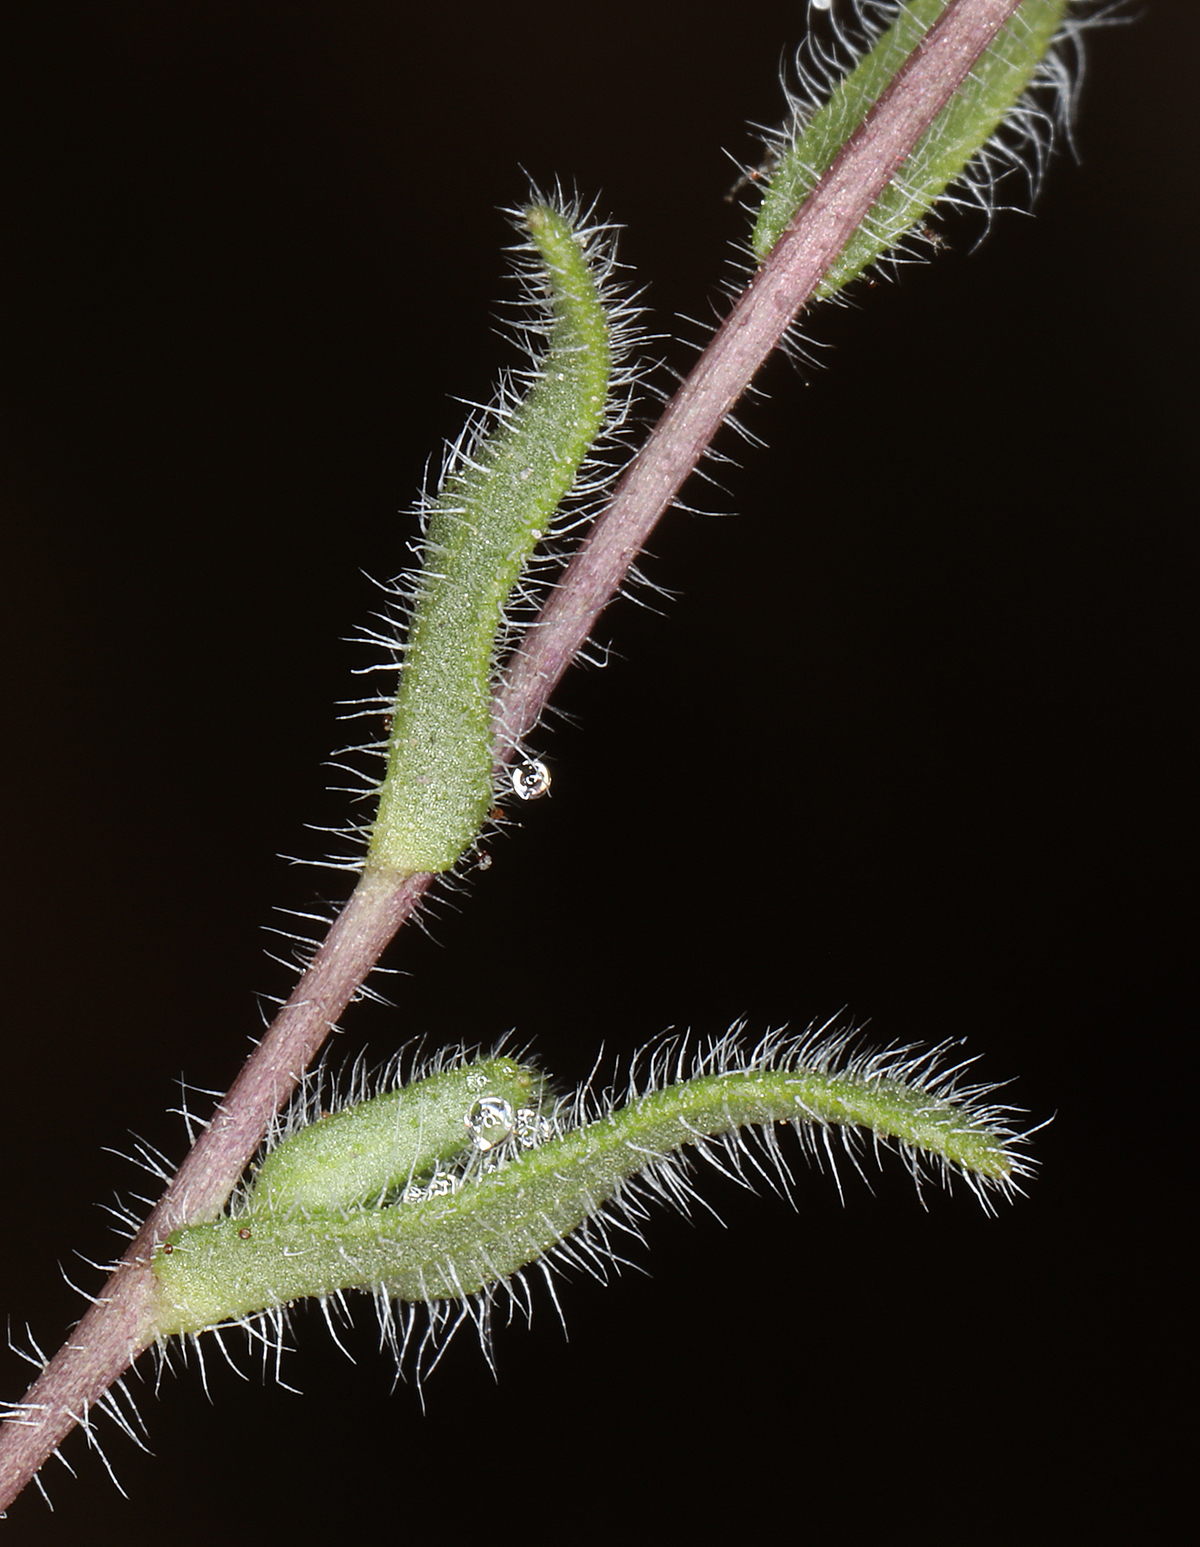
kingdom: Plantae
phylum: Tracheophyta
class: Magnoliopsida
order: Asterales
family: Asteraceae
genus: Layia
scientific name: Layia glandulosa
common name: White layia
